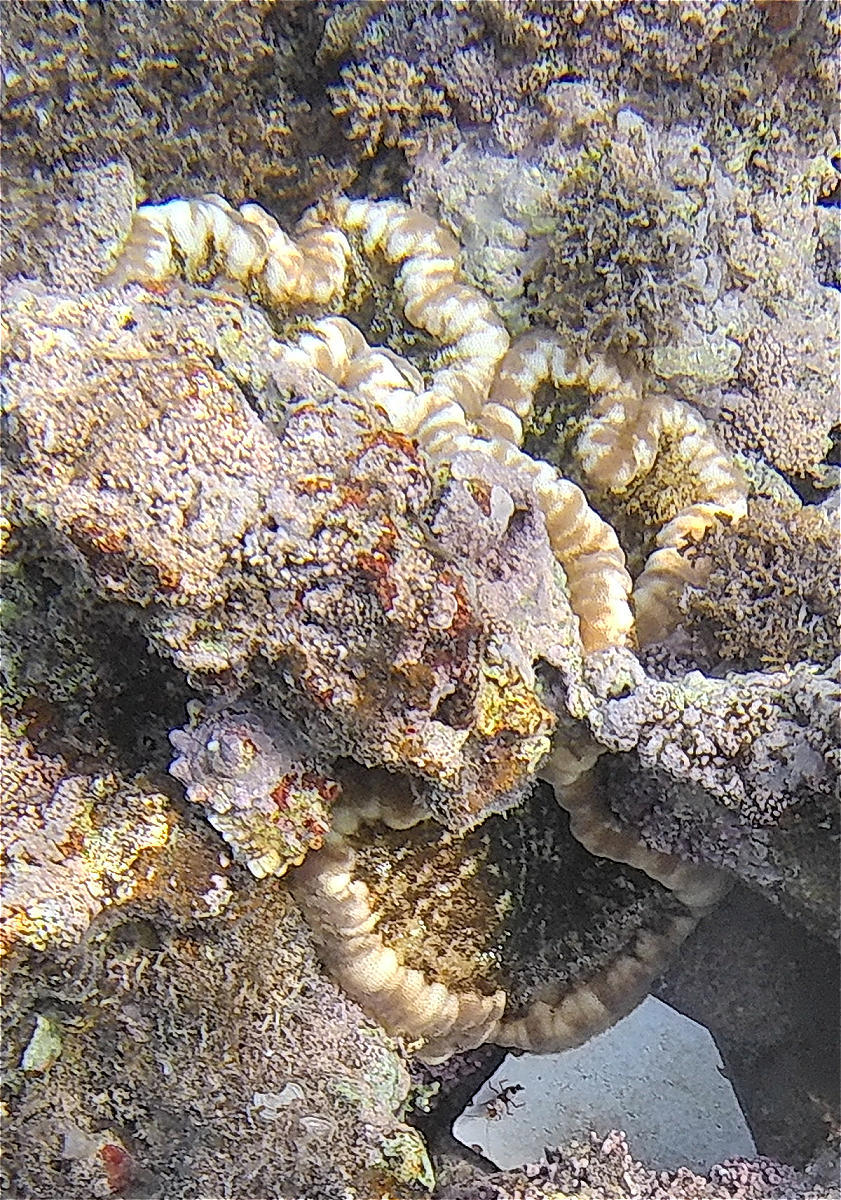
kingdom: Animalia
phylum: Cnidaria
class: Anthozoa
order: Actiniaria
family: Thalassianthidae
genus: Cryptodendrum
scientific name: Cryptodendrum adhaesivum
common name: Adhesive sea anemone
